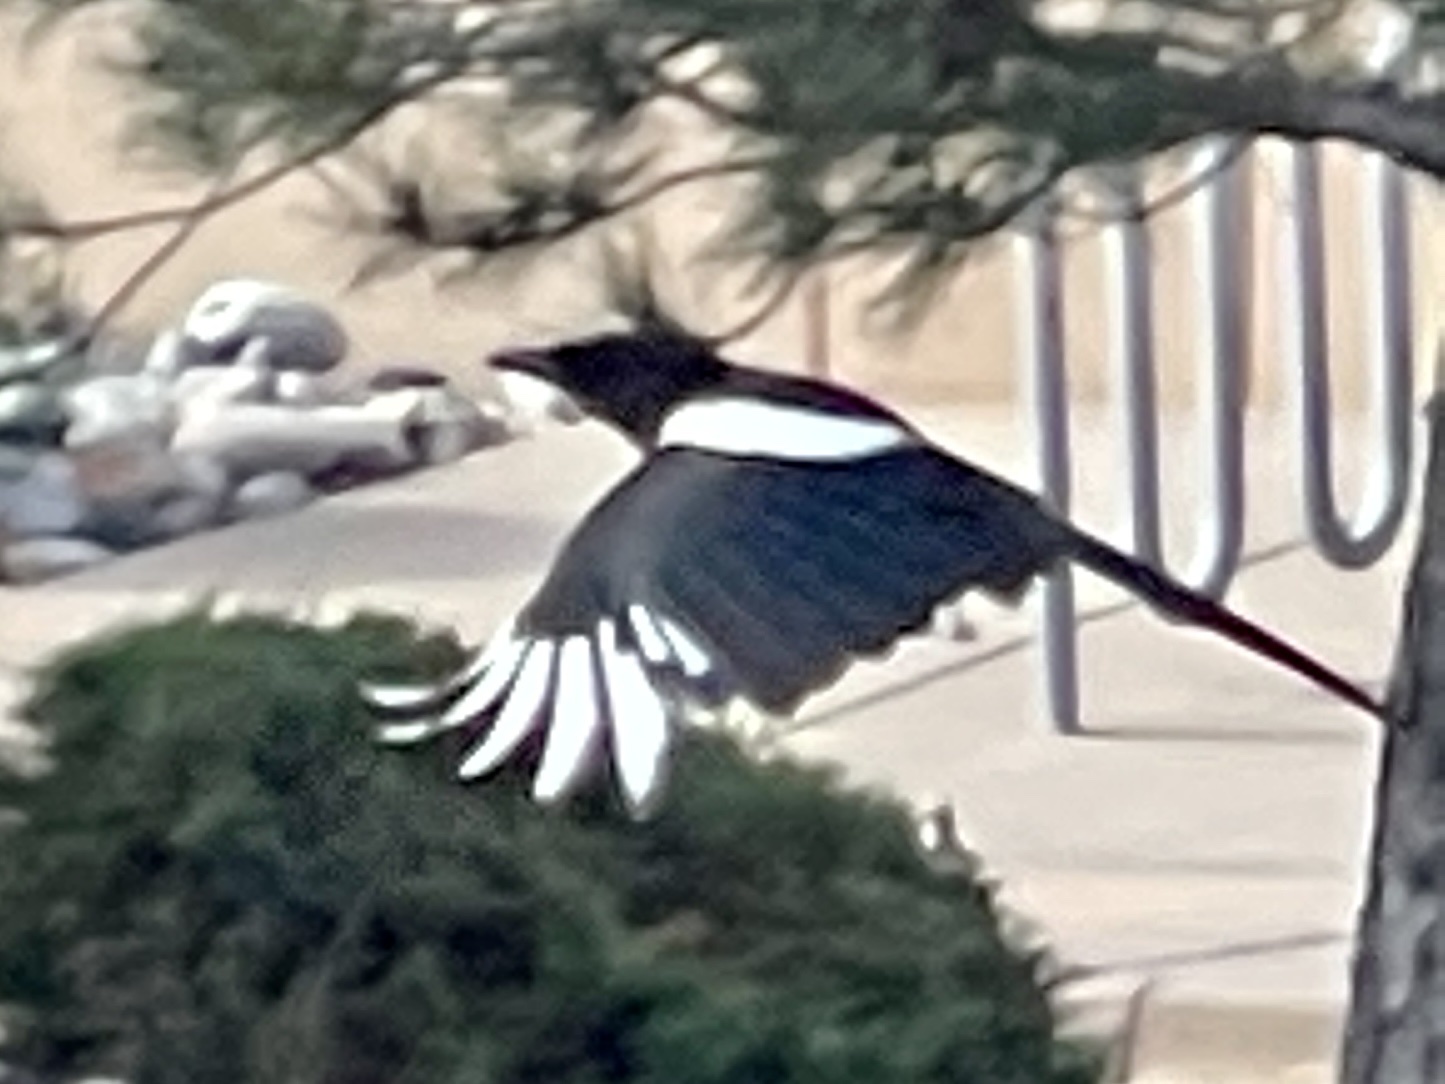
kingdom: Animalia
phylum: Chordata
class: Aves
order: Passeriformes
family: Corvidae
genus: Pica
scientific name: Pica hudsonia
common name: Black-billed magpie
